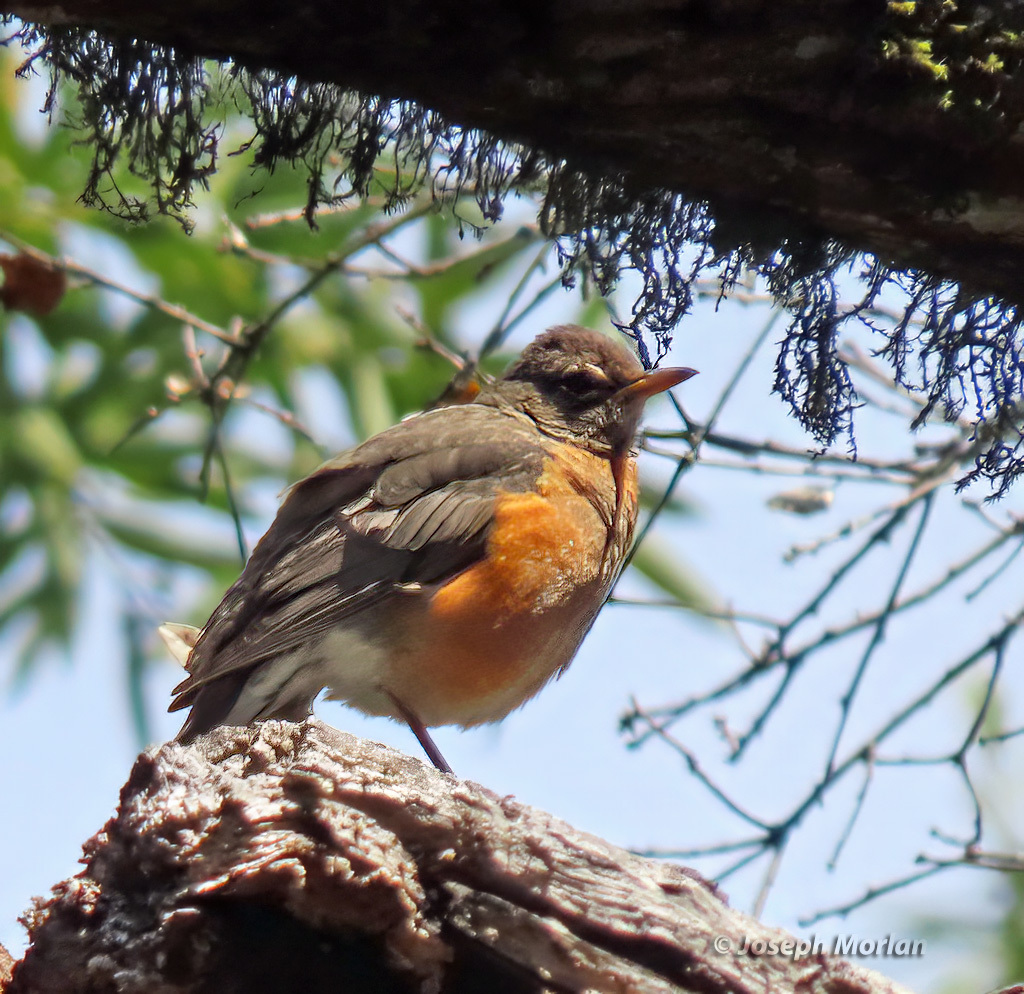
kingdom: Animalia
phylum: Chordata
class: Aves
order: Passeriformes
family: Turdidae
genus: Turdus
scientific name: Turdus migratorius
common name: American robin
